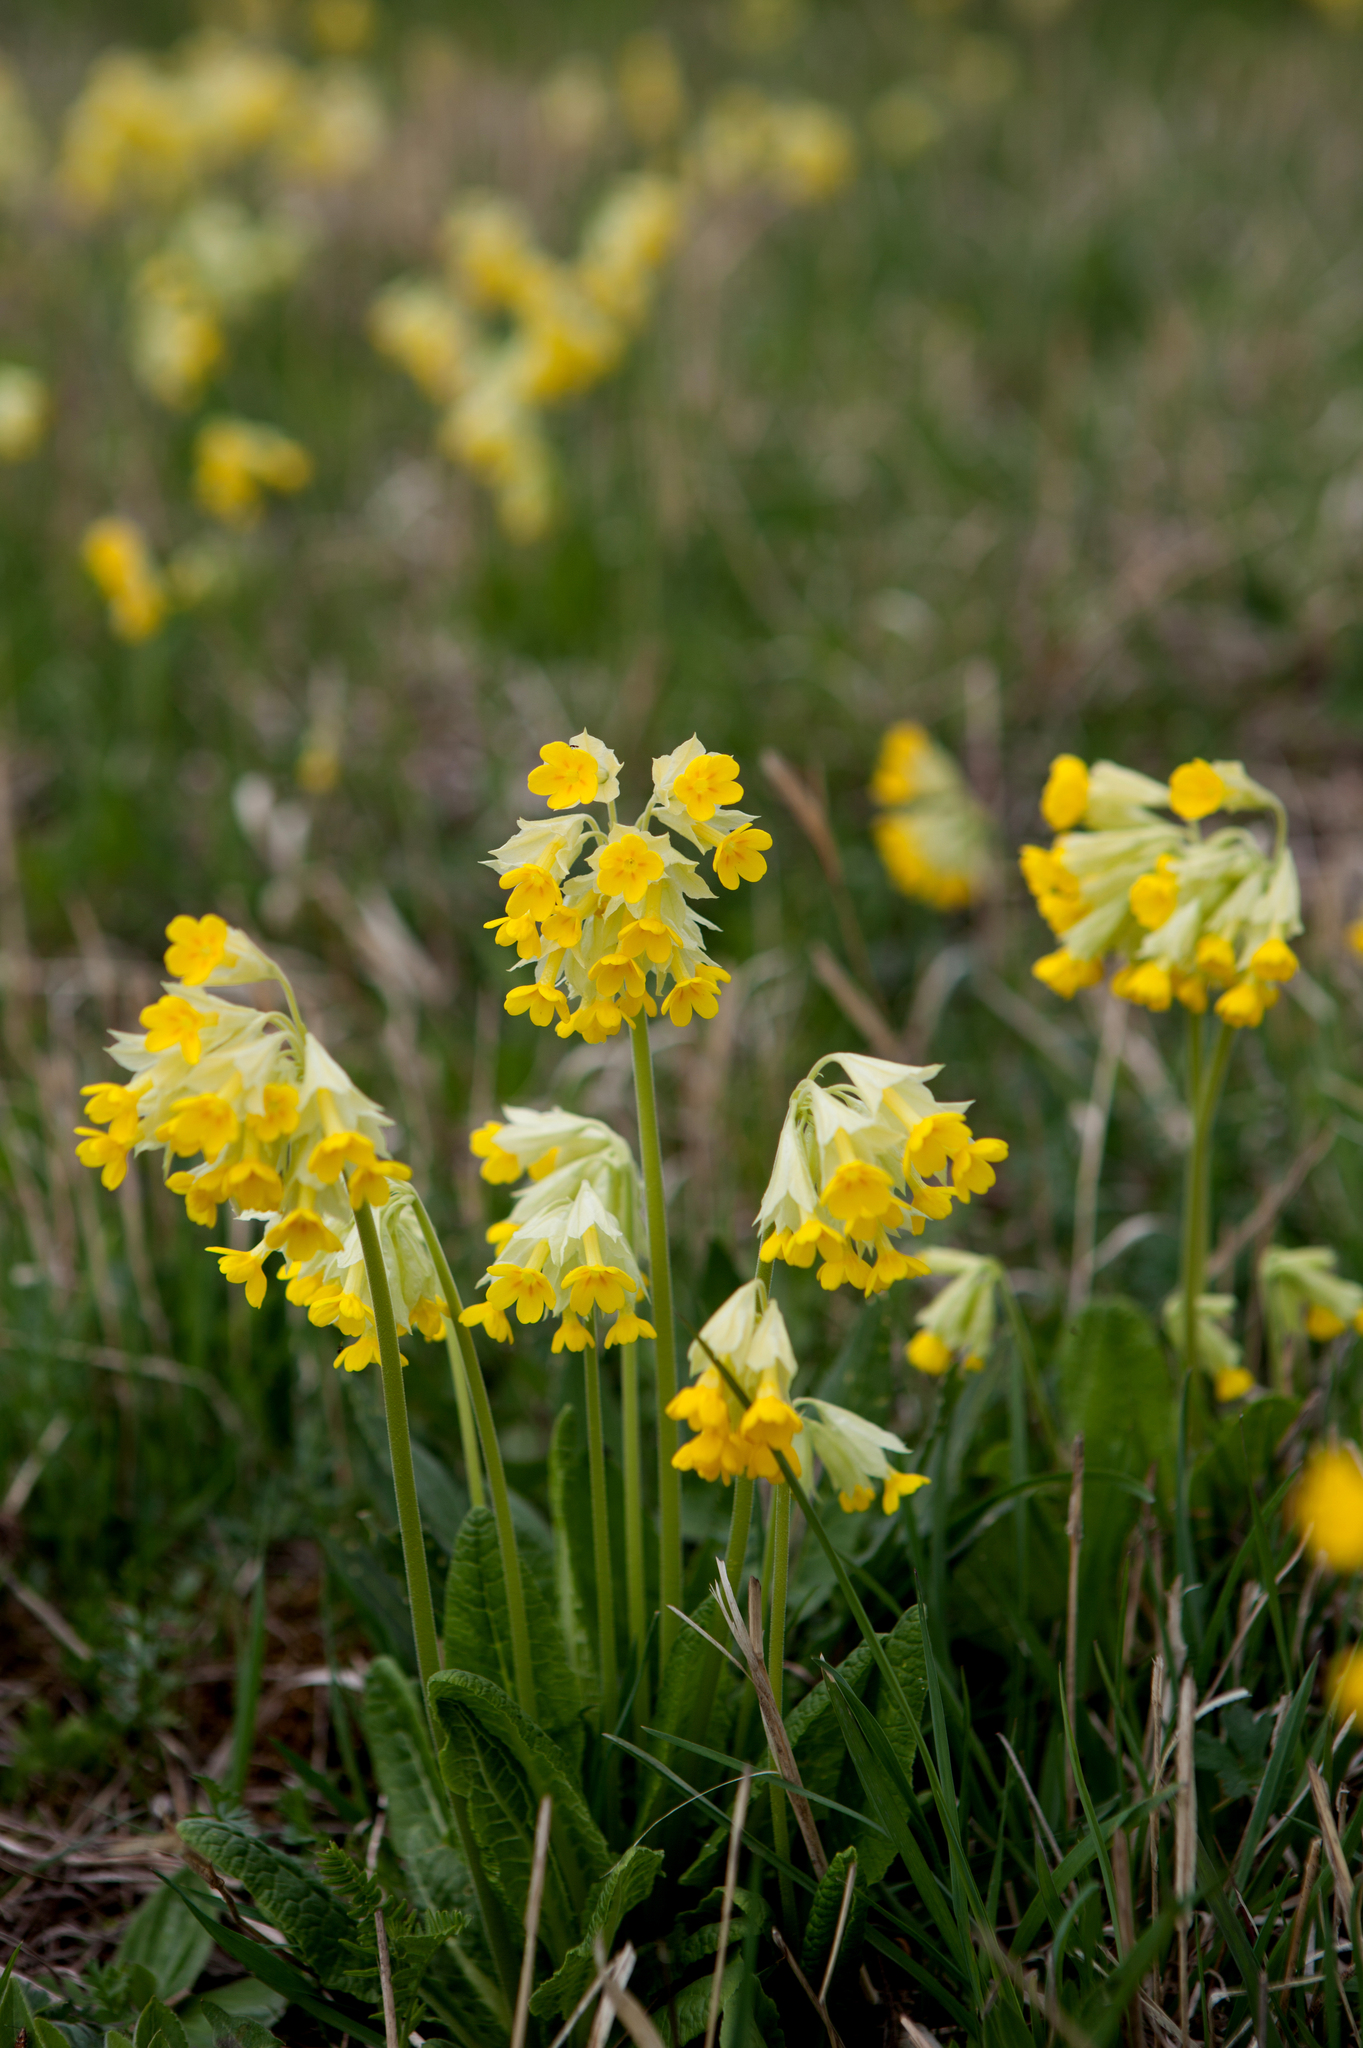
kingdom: Plantae
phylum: Tracheophyta
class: Magnoliopsida
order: Ericales
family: Primulaceae
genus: Primula
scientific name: Primula veris
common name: Cowslip
